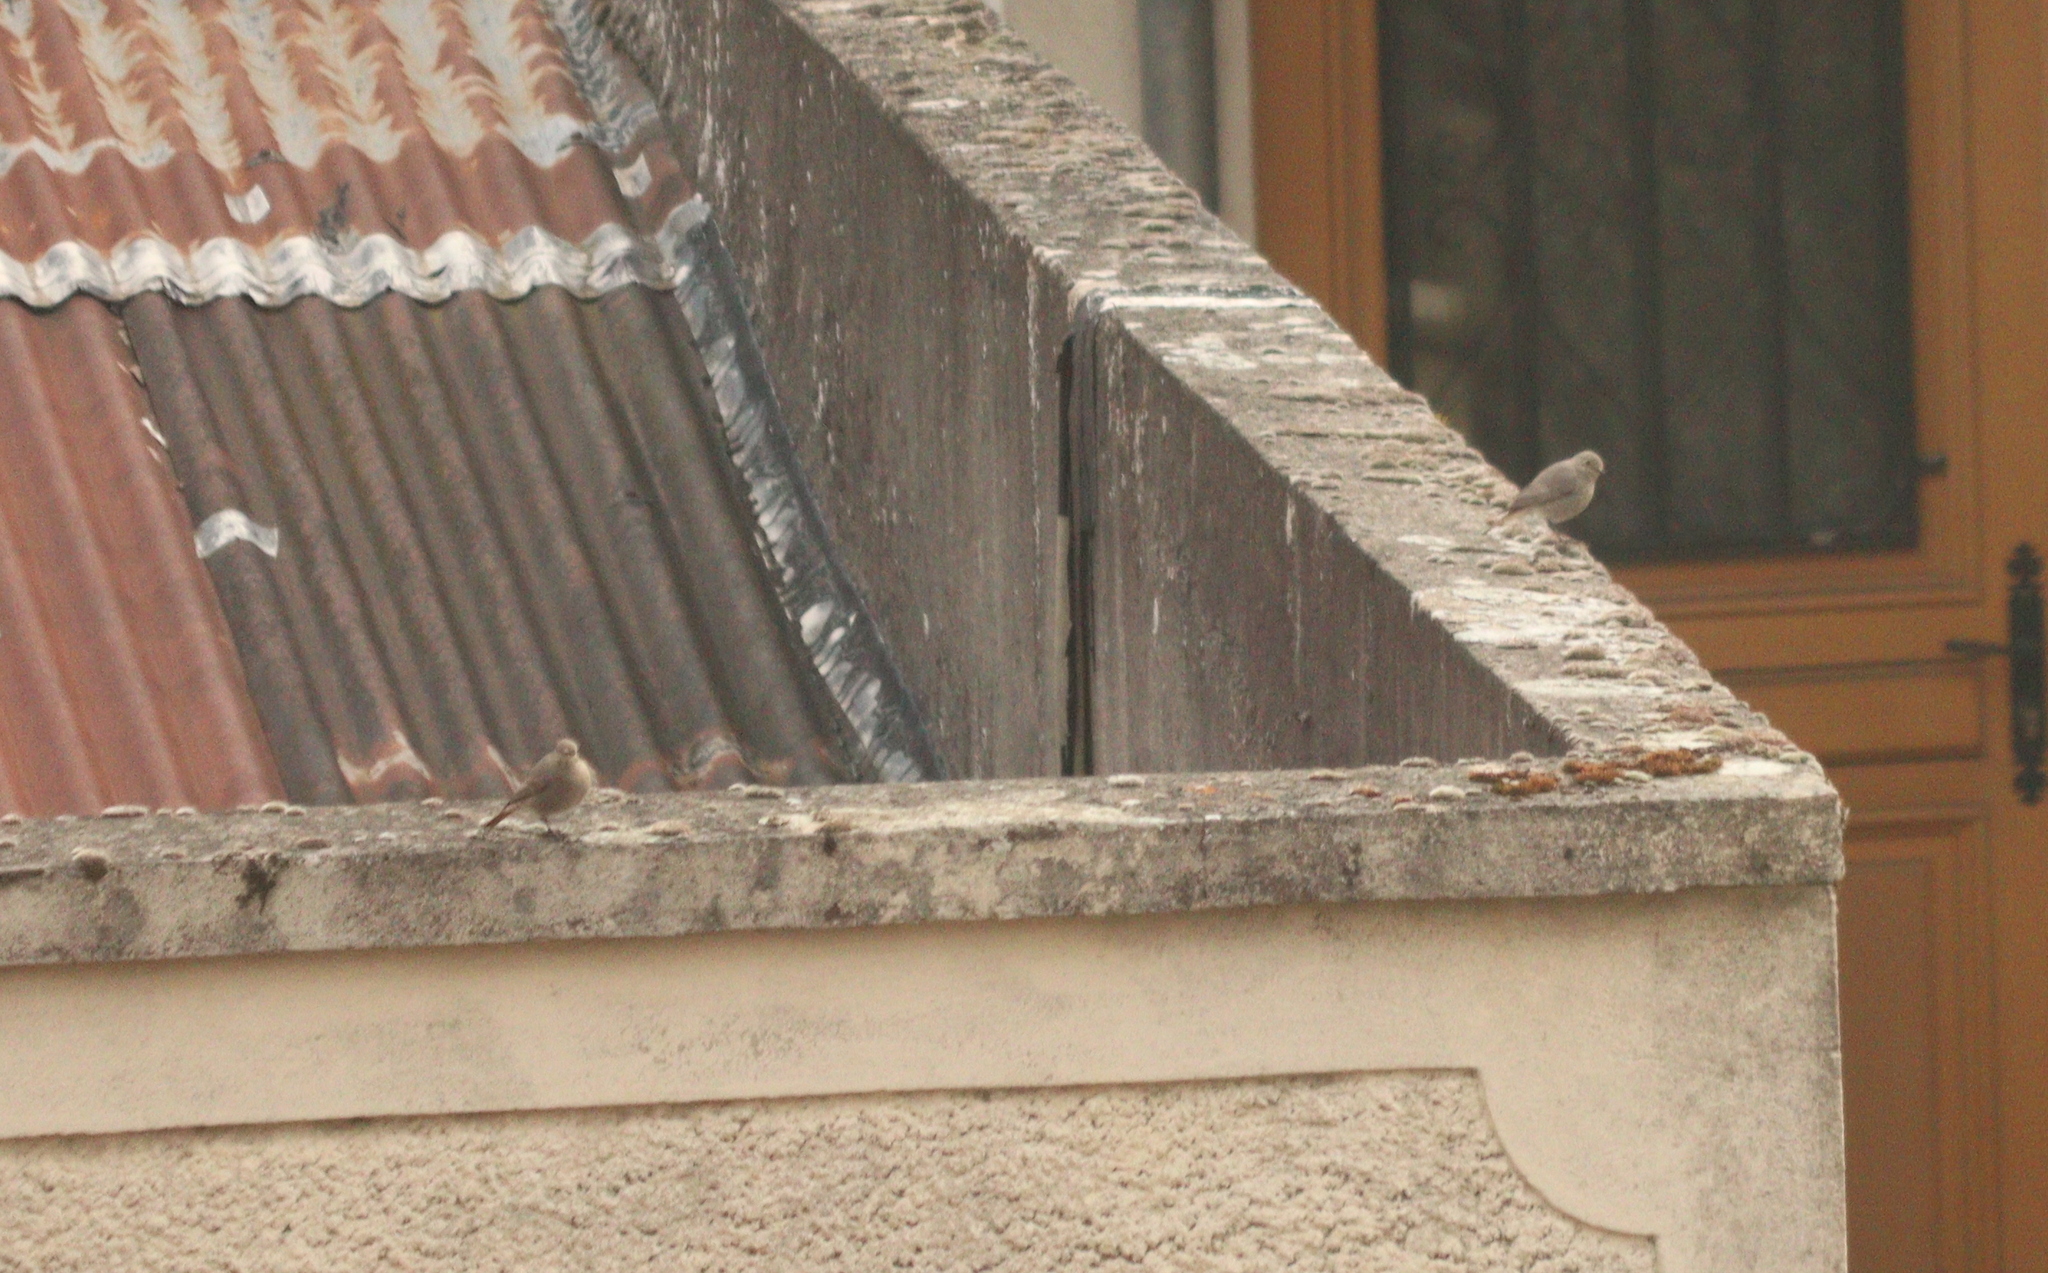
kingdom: Animalia
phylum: Chordata
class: Aves
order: Passeriformes
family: Muscicapidae
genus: Phoenicurus
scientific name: Phoenicurus ochruros
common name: Black redstart
